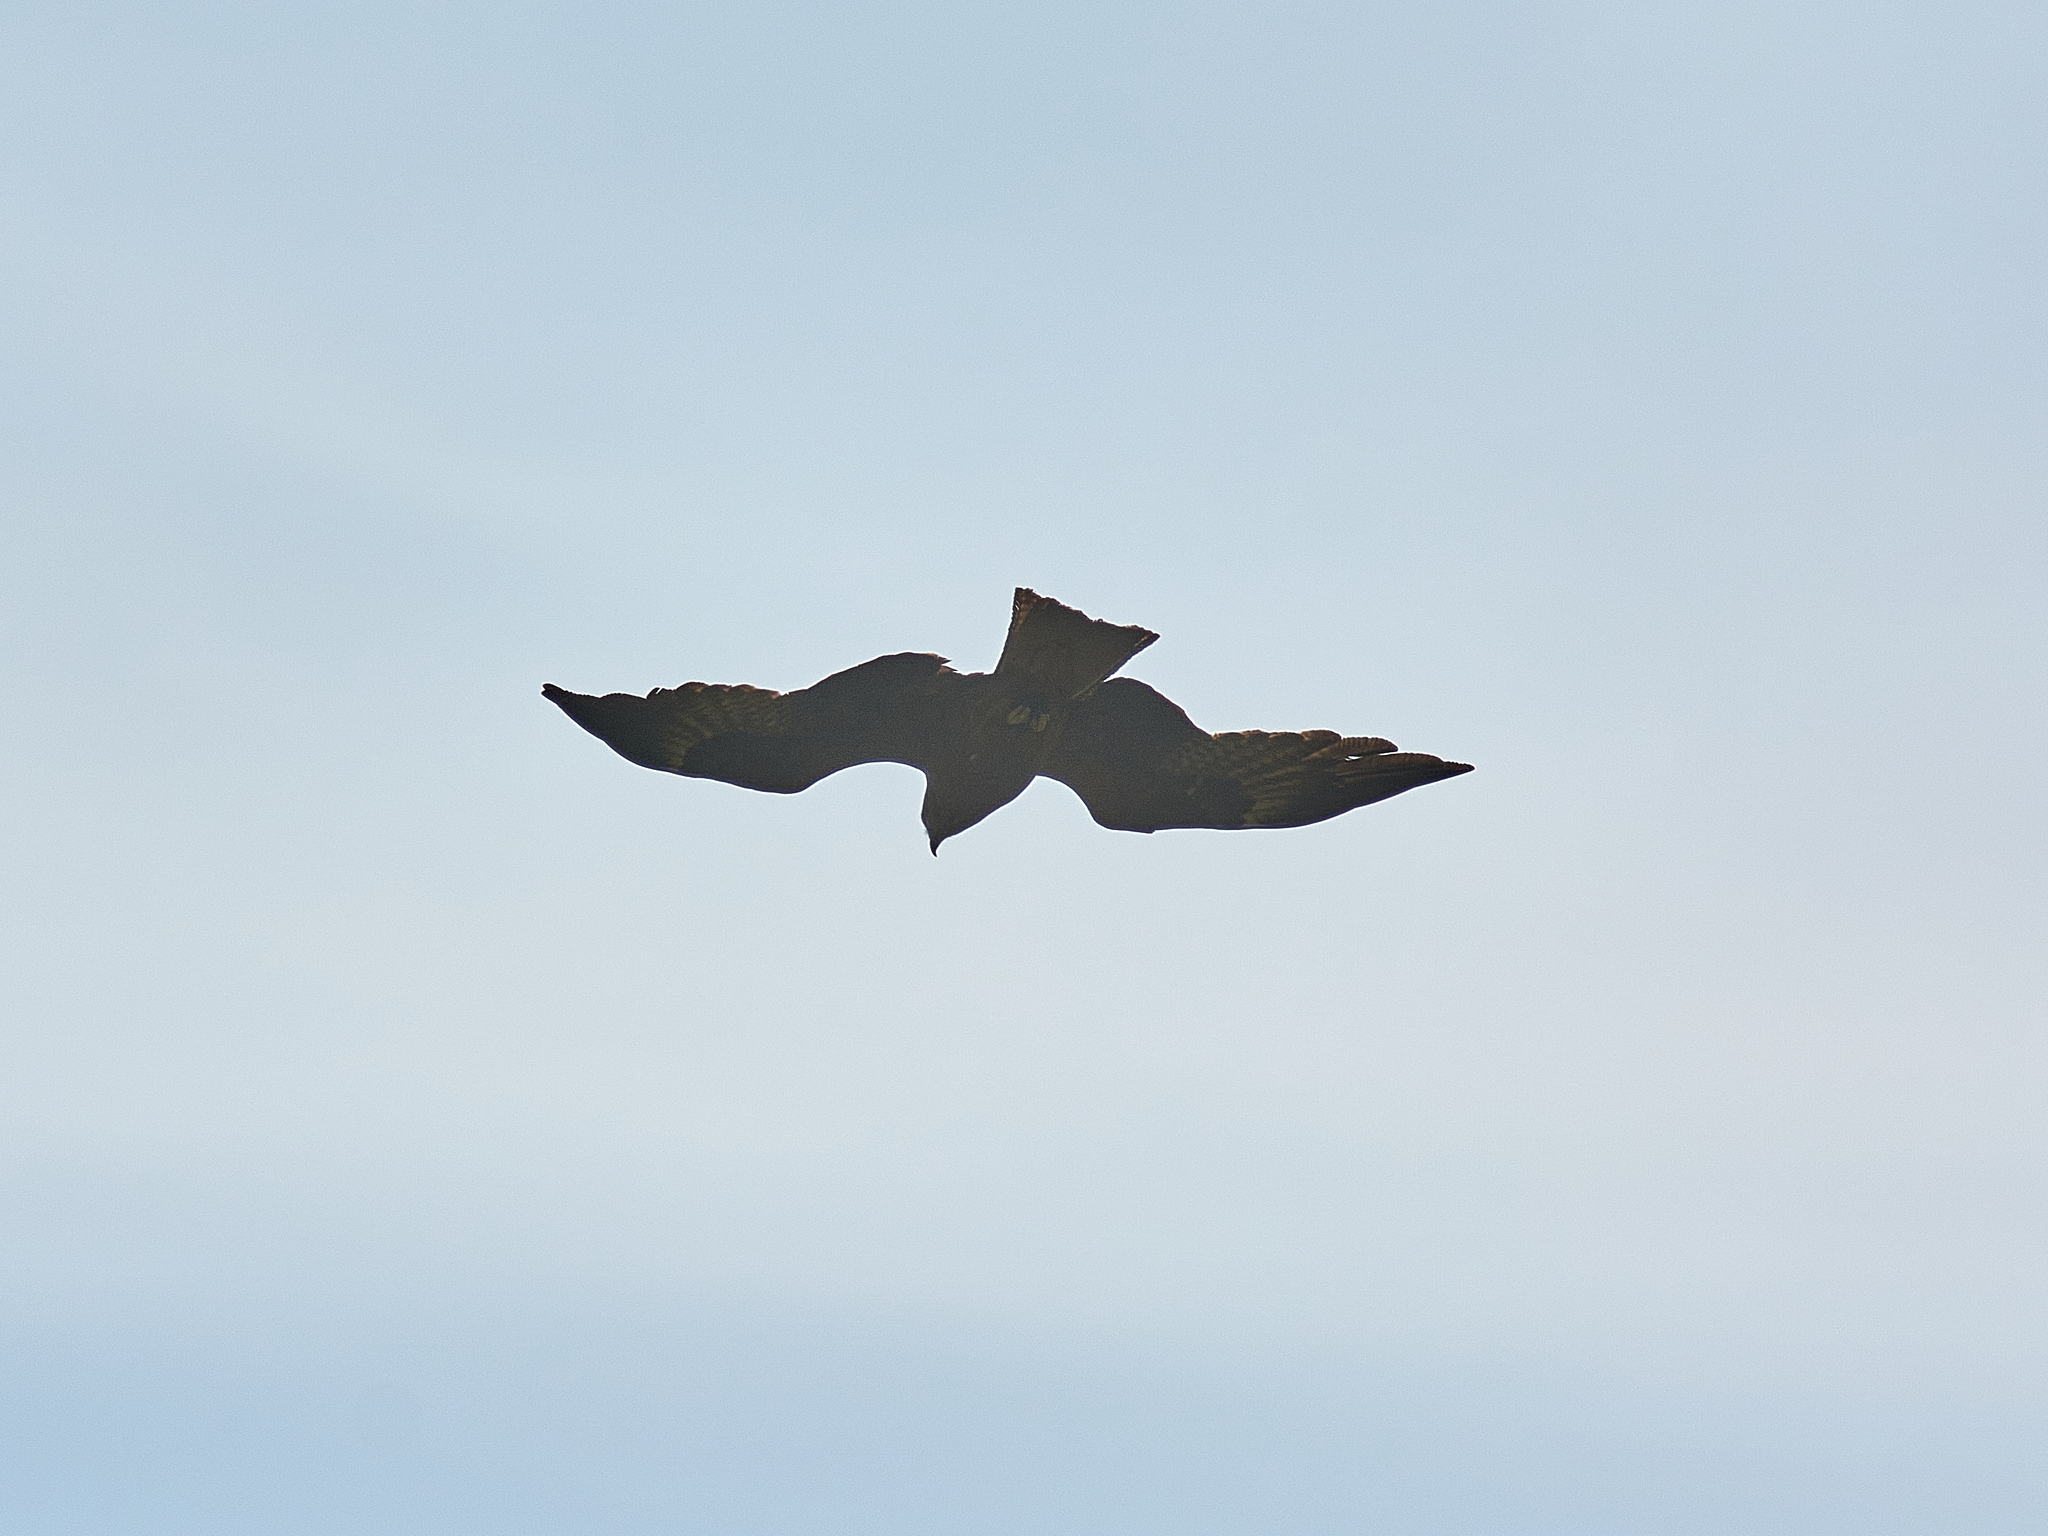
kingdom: Animalia
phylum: Chordata
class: Aves
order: Accipitriformes
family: Accipitridae
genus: Milvus
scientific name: Milvus migrans
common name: Black kite
